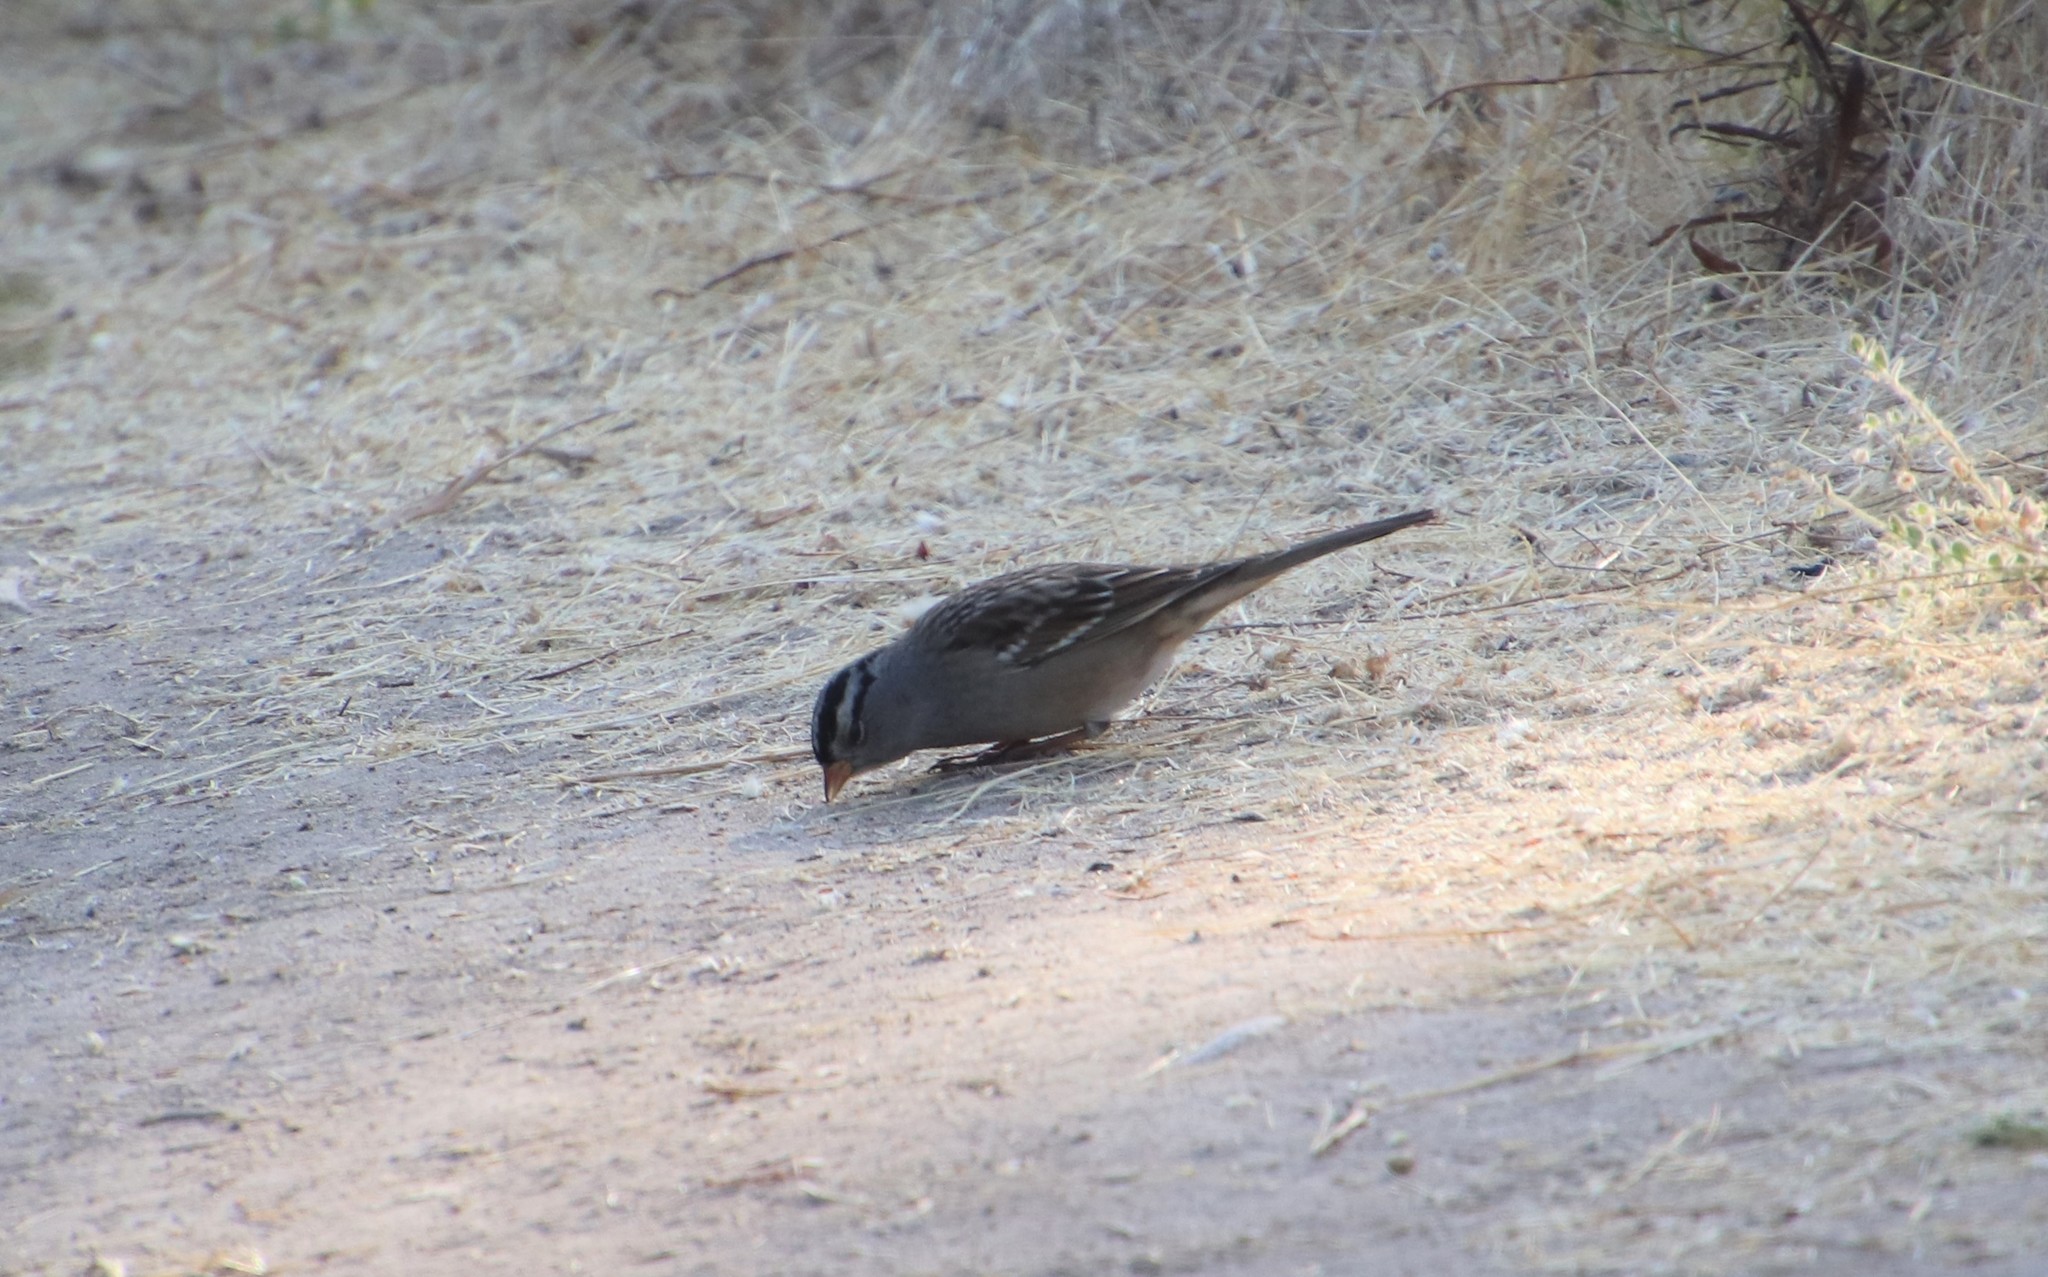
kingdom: Animalia
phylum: Chordata
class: Aves
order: Passeriformes
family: Passerellidae
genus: Zonotrichia
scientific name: Zonotrichia leucophrys
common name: White-crowned sparrow
